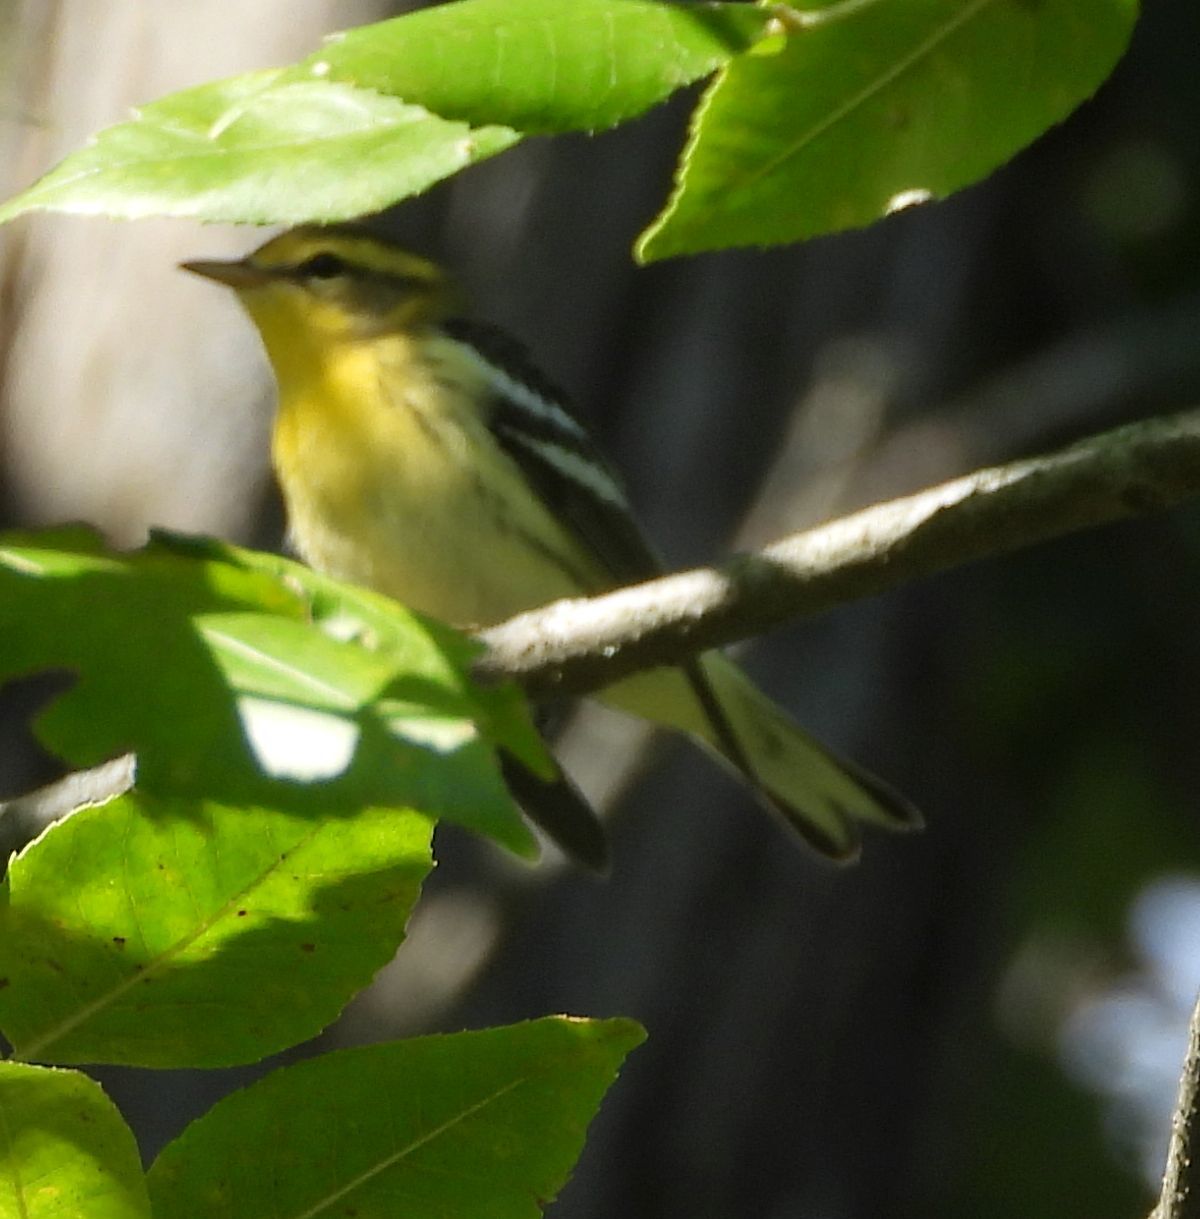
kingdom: Animalia
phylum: Chordata
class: Aves
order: Passeriformes
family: Parulidae
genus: Setophaga
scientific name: Setophaga fusca
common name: Blackburnian warbler
